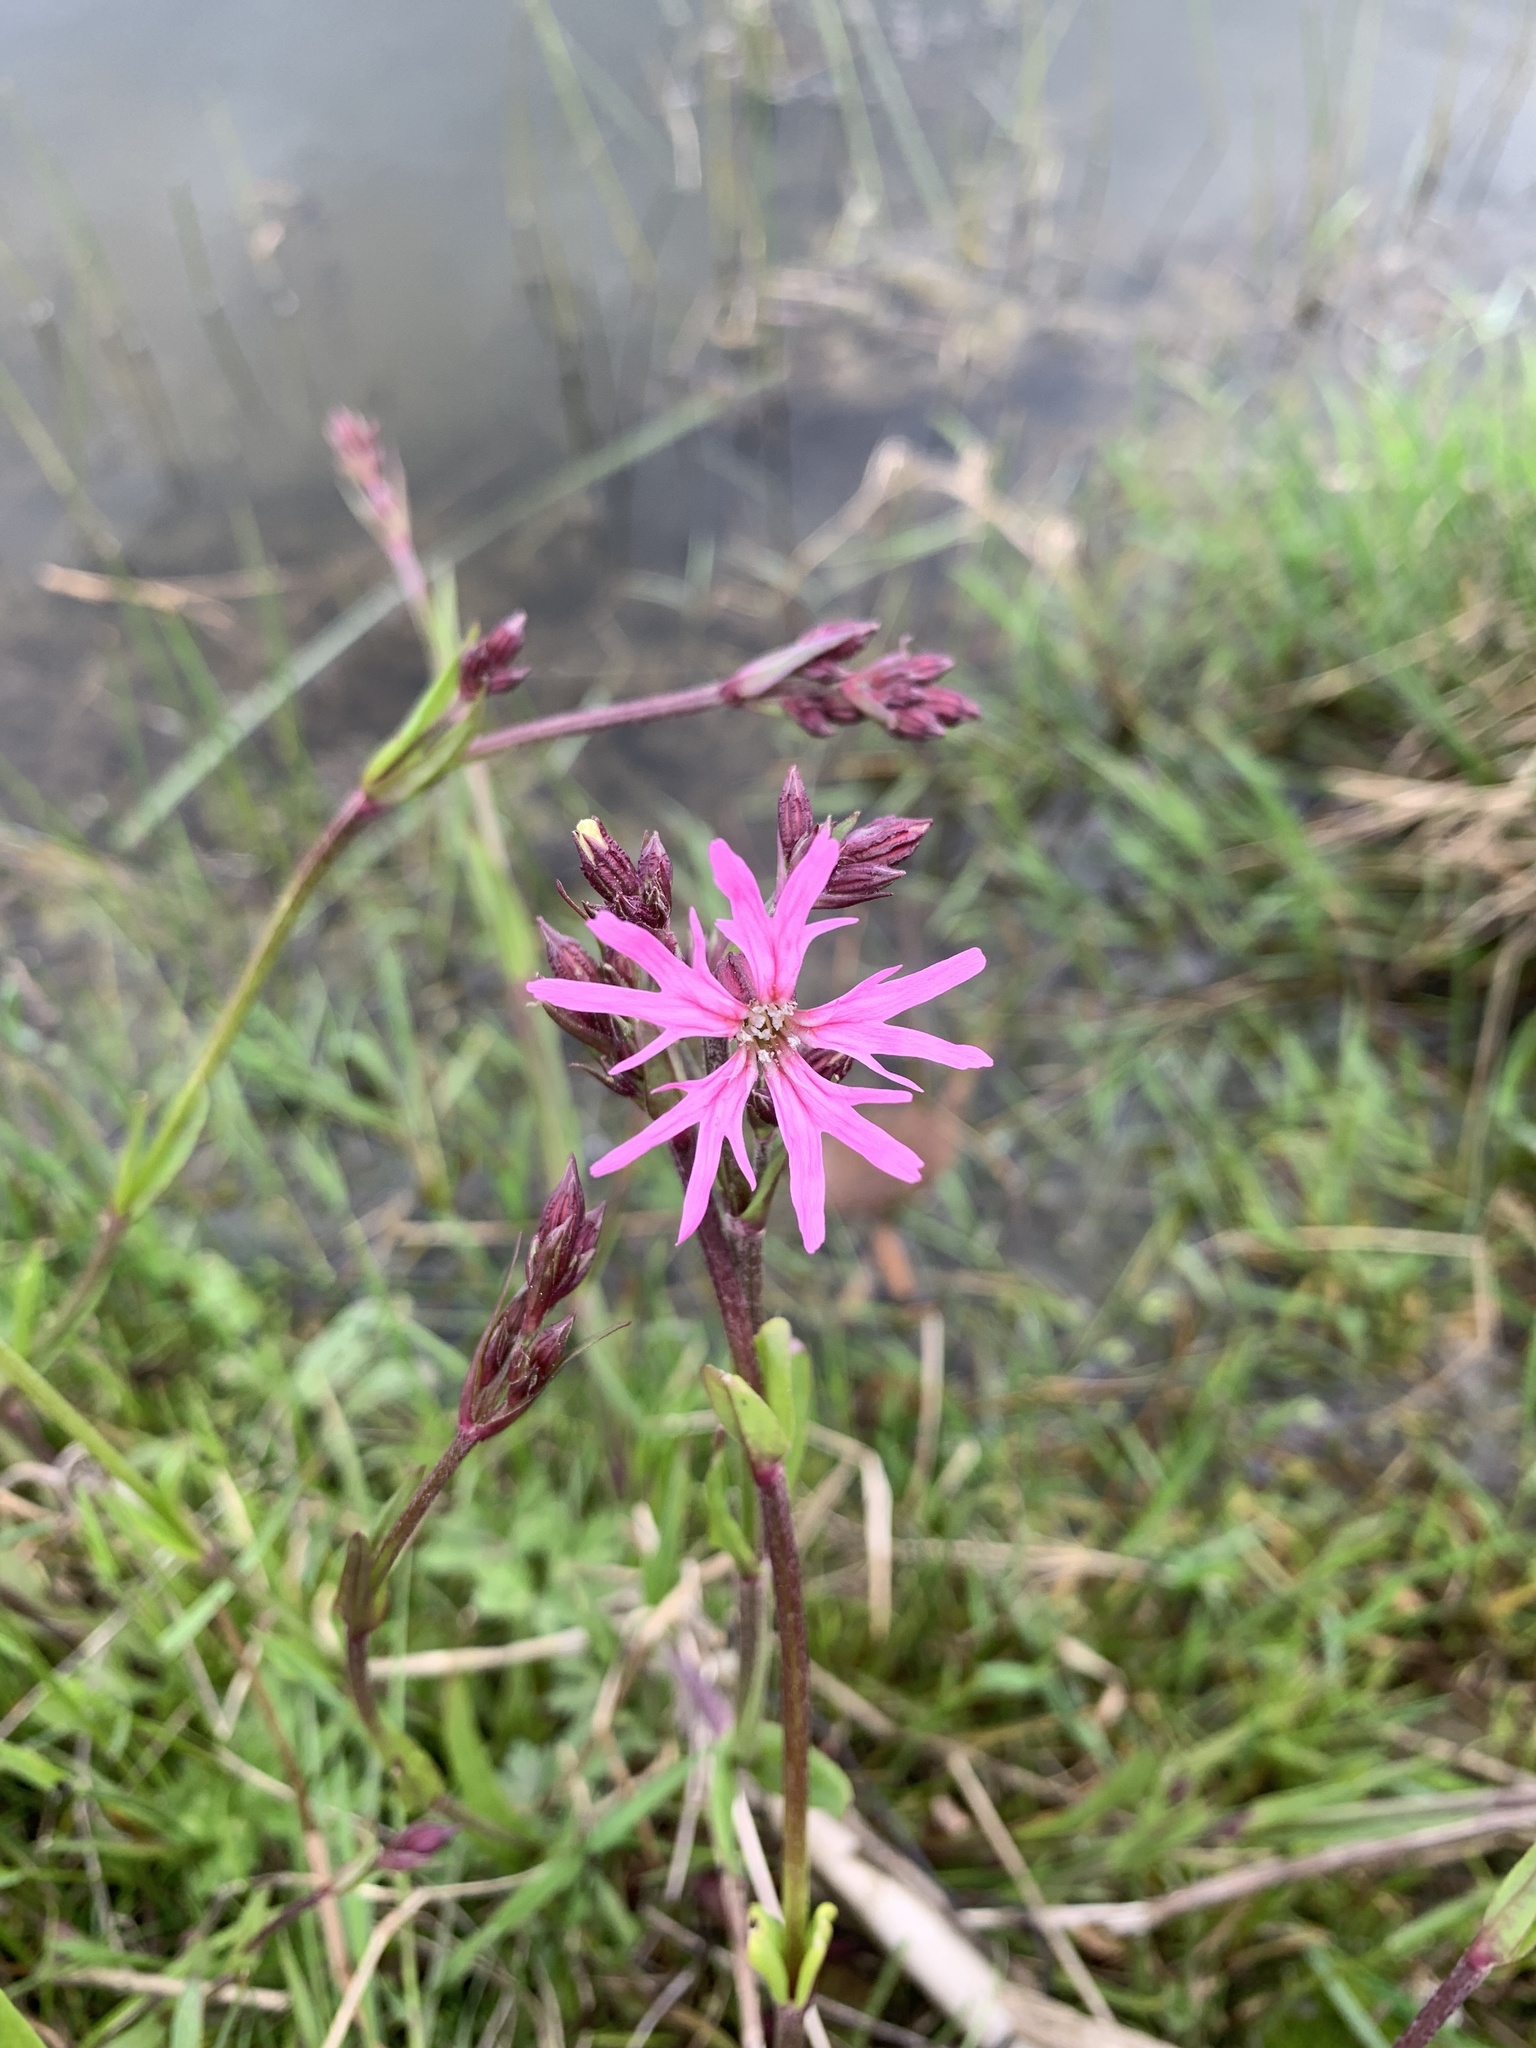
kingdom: Plantae
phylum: Tracheophyta
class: Magnoliopsida
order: Caryophyllales
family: Caryophyllaceae
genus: Silene
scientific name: Silene flos-cuculi
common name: Ragged-robin
